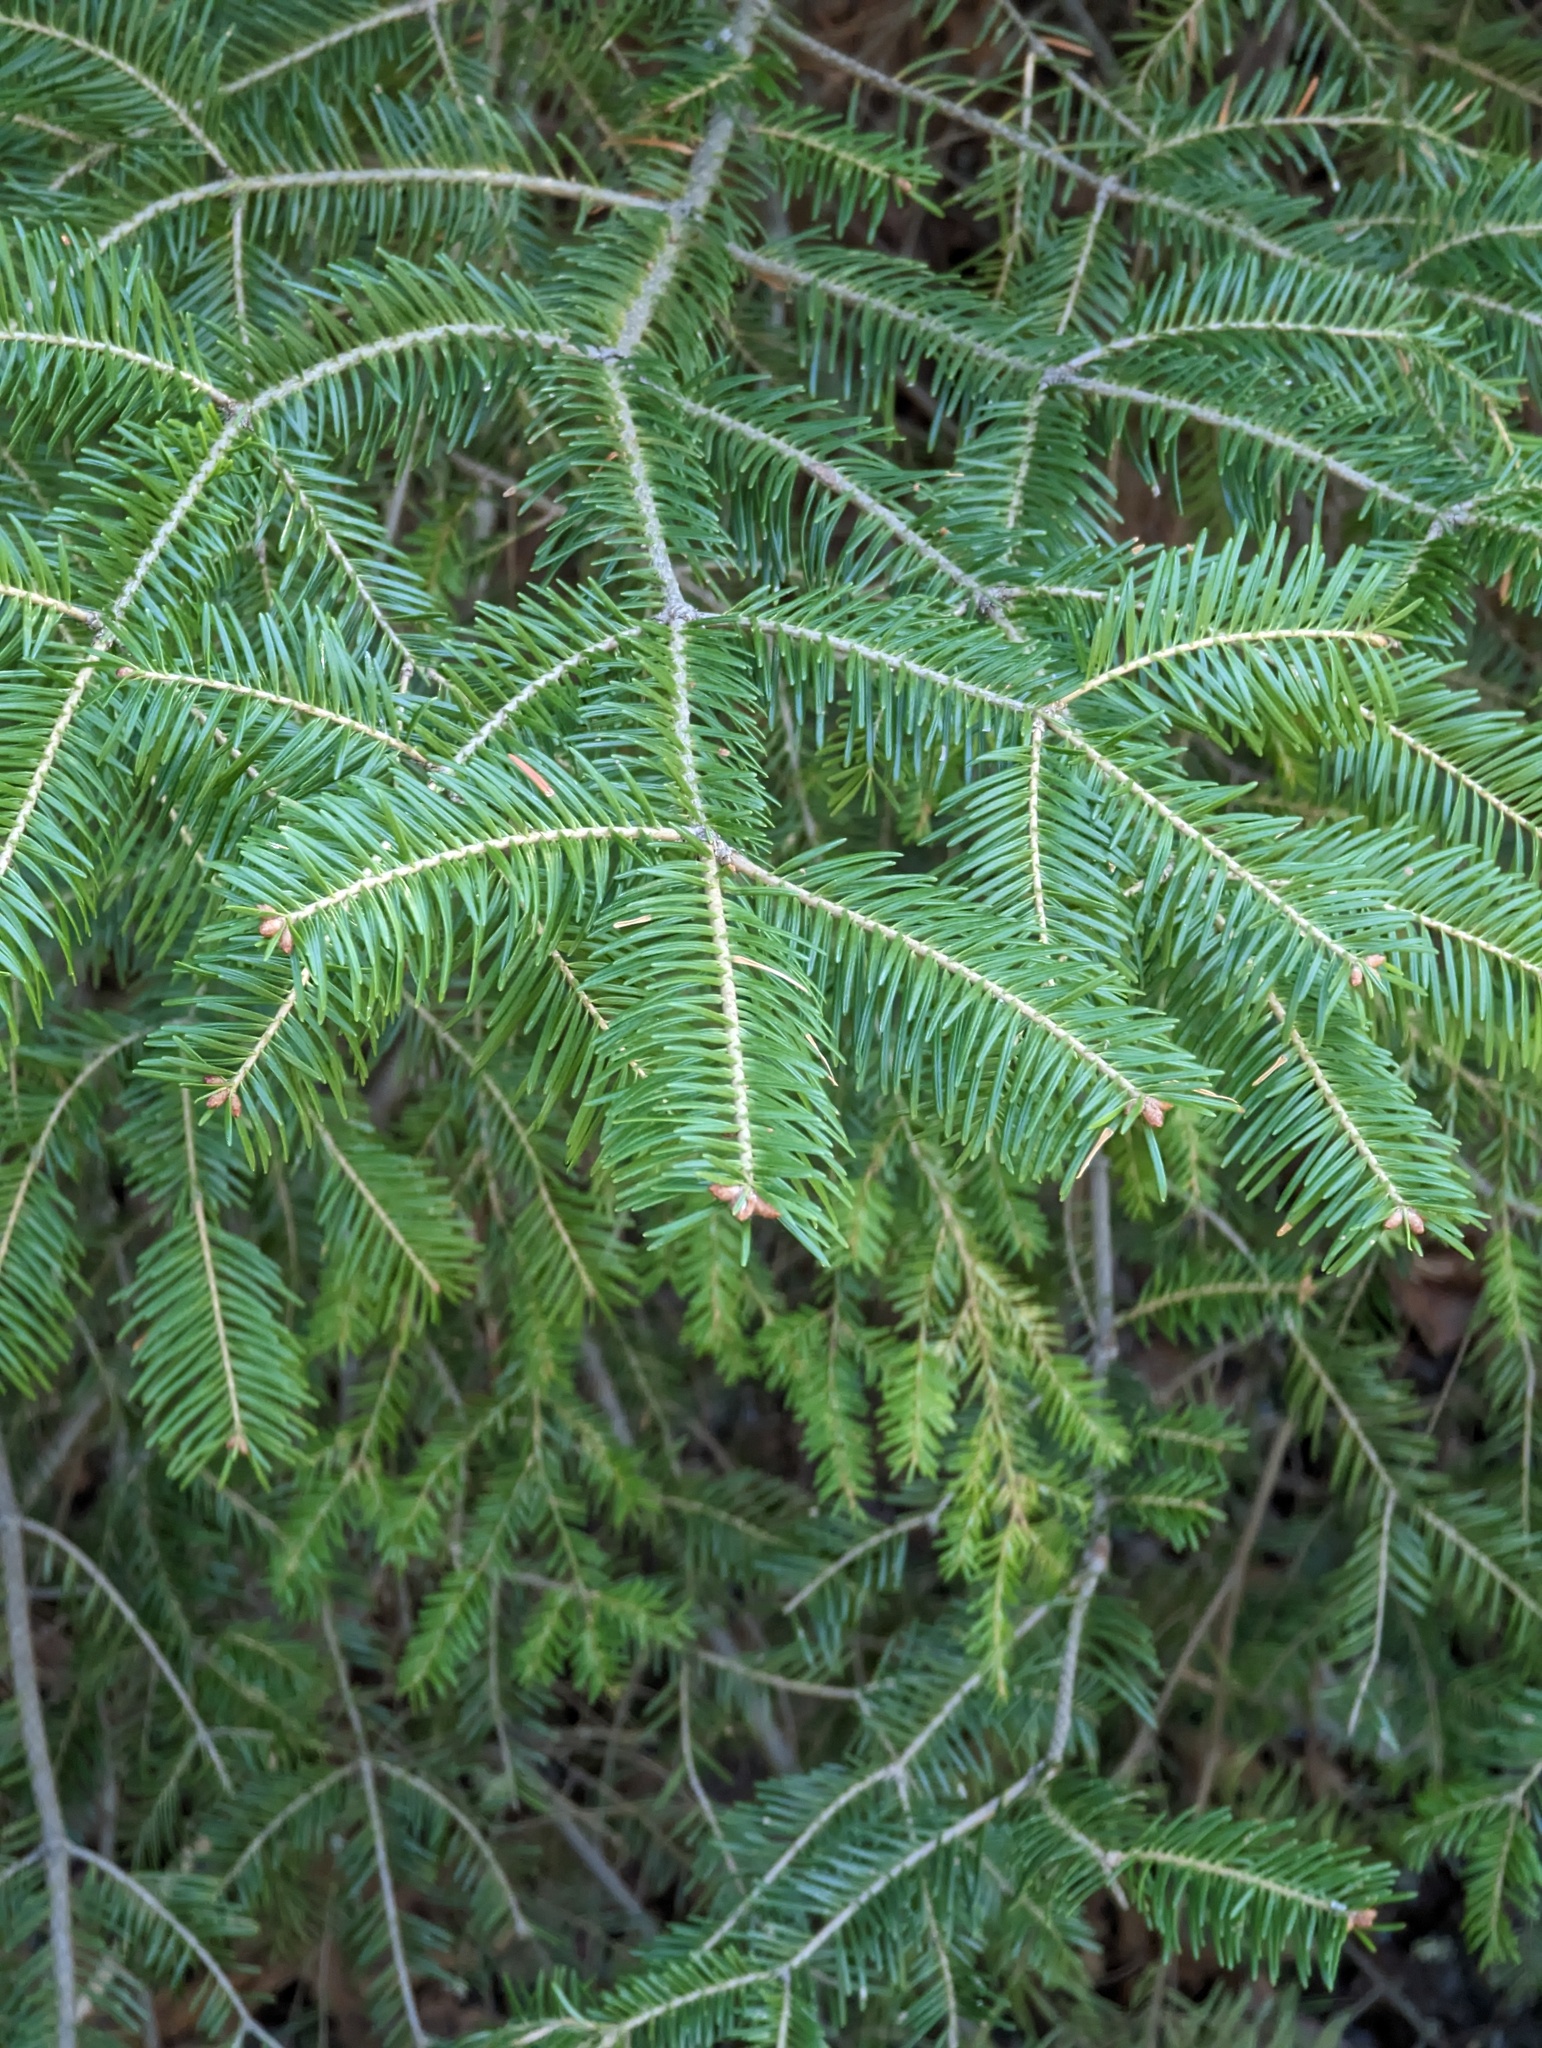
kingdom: Plantae
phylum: Tracheophyta
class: Pinopsida
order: Pinales
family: Pinaceae
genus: Abies
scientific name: Abies balsamea
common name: Balsam fir
